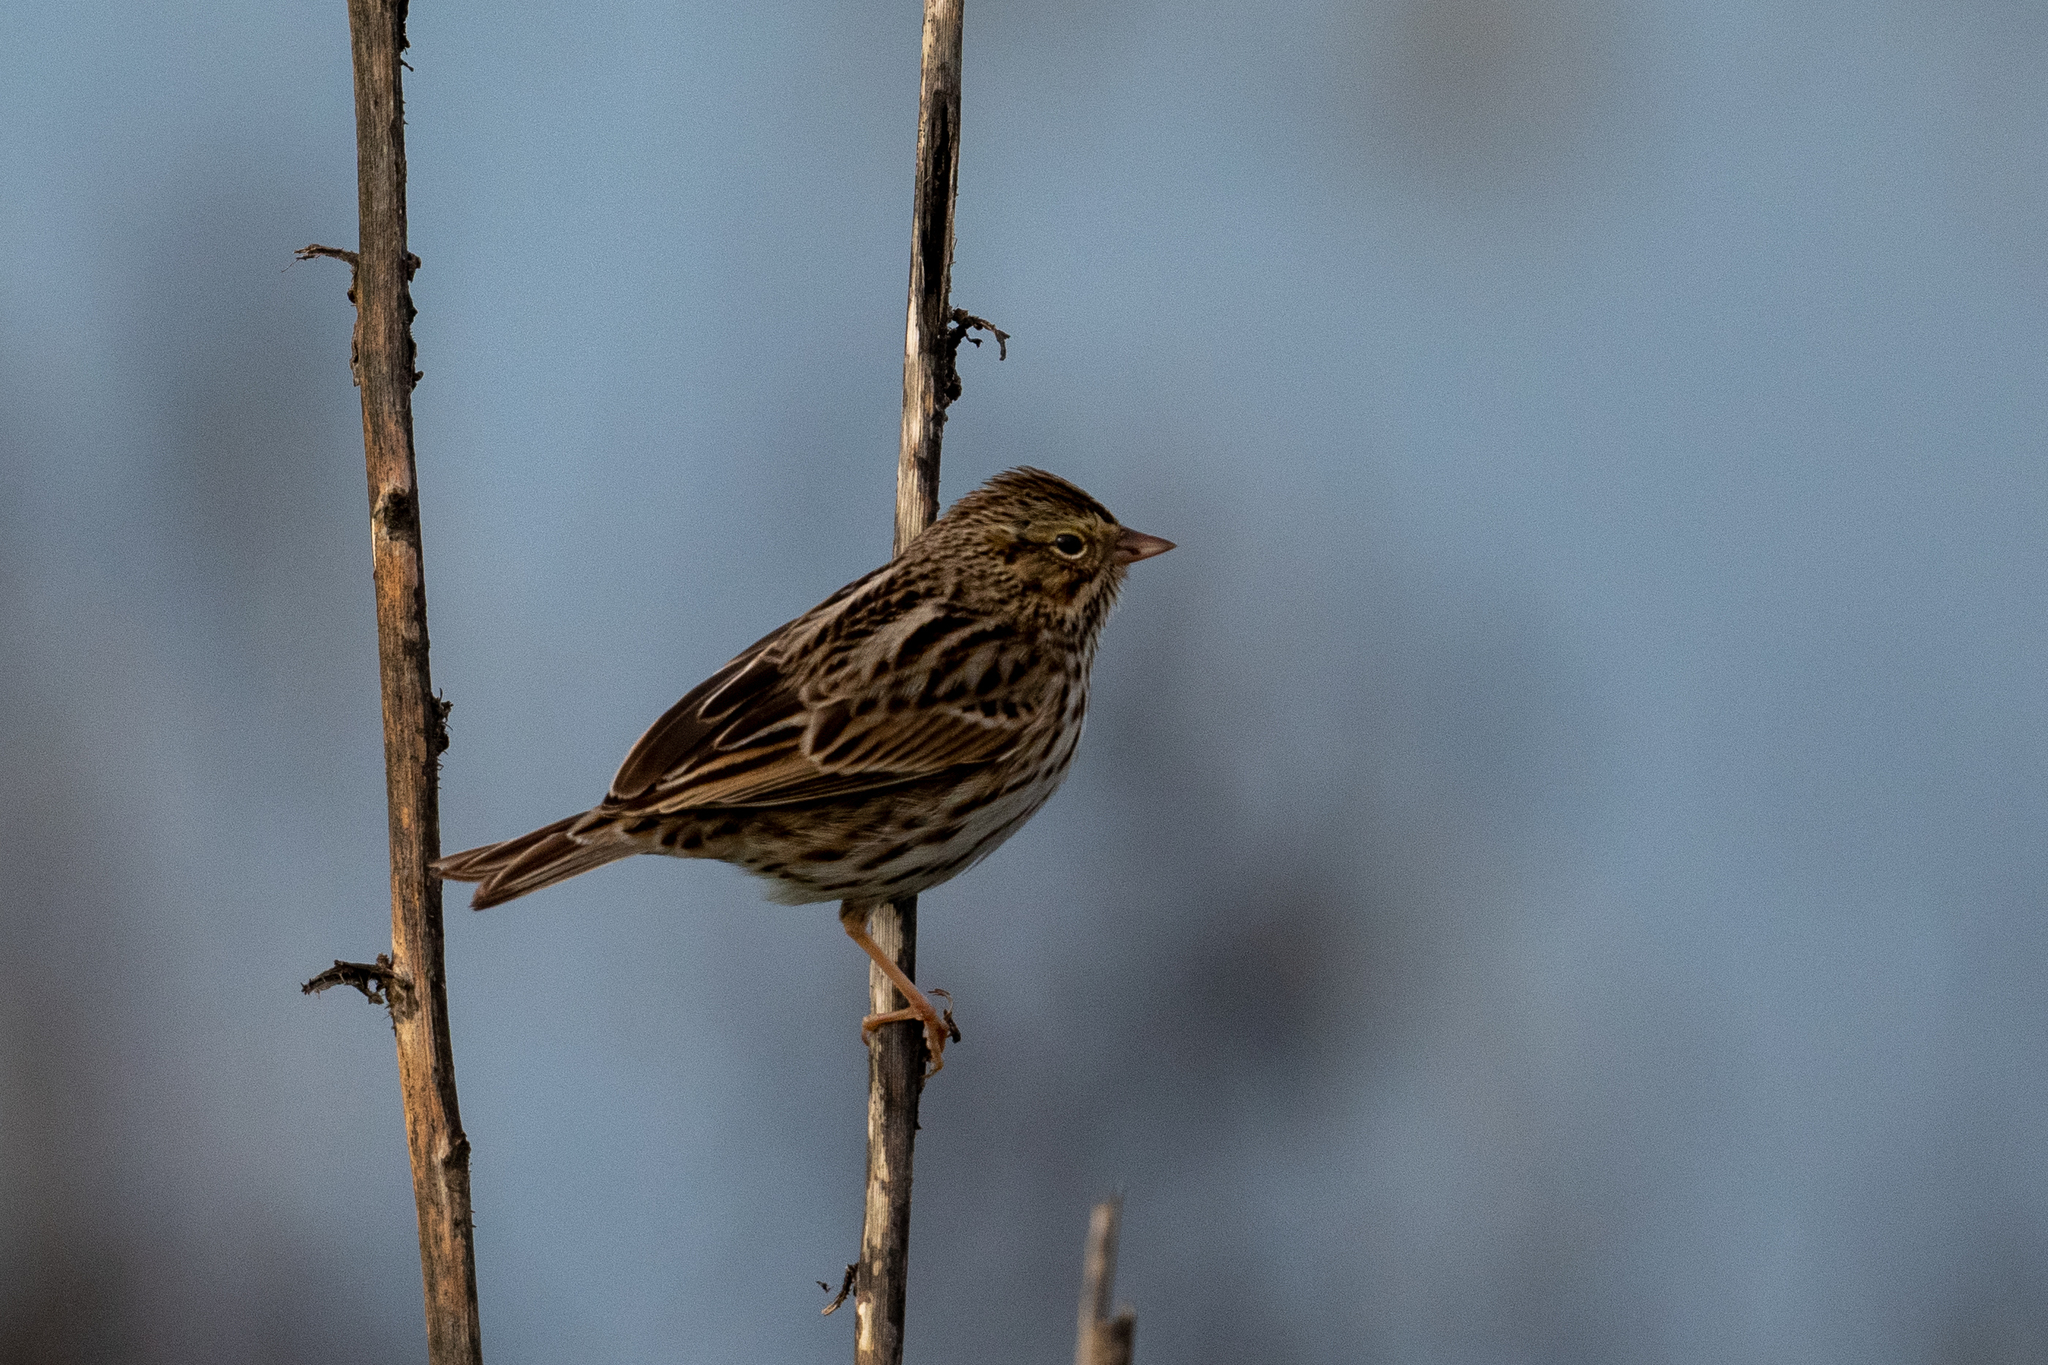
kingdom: Animalia
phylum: Chordata
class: Aves
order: Passeriformes
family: Passerellidae
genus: Passerculus
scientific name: Passerculus sandwichensis
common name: Savannah sparrow
